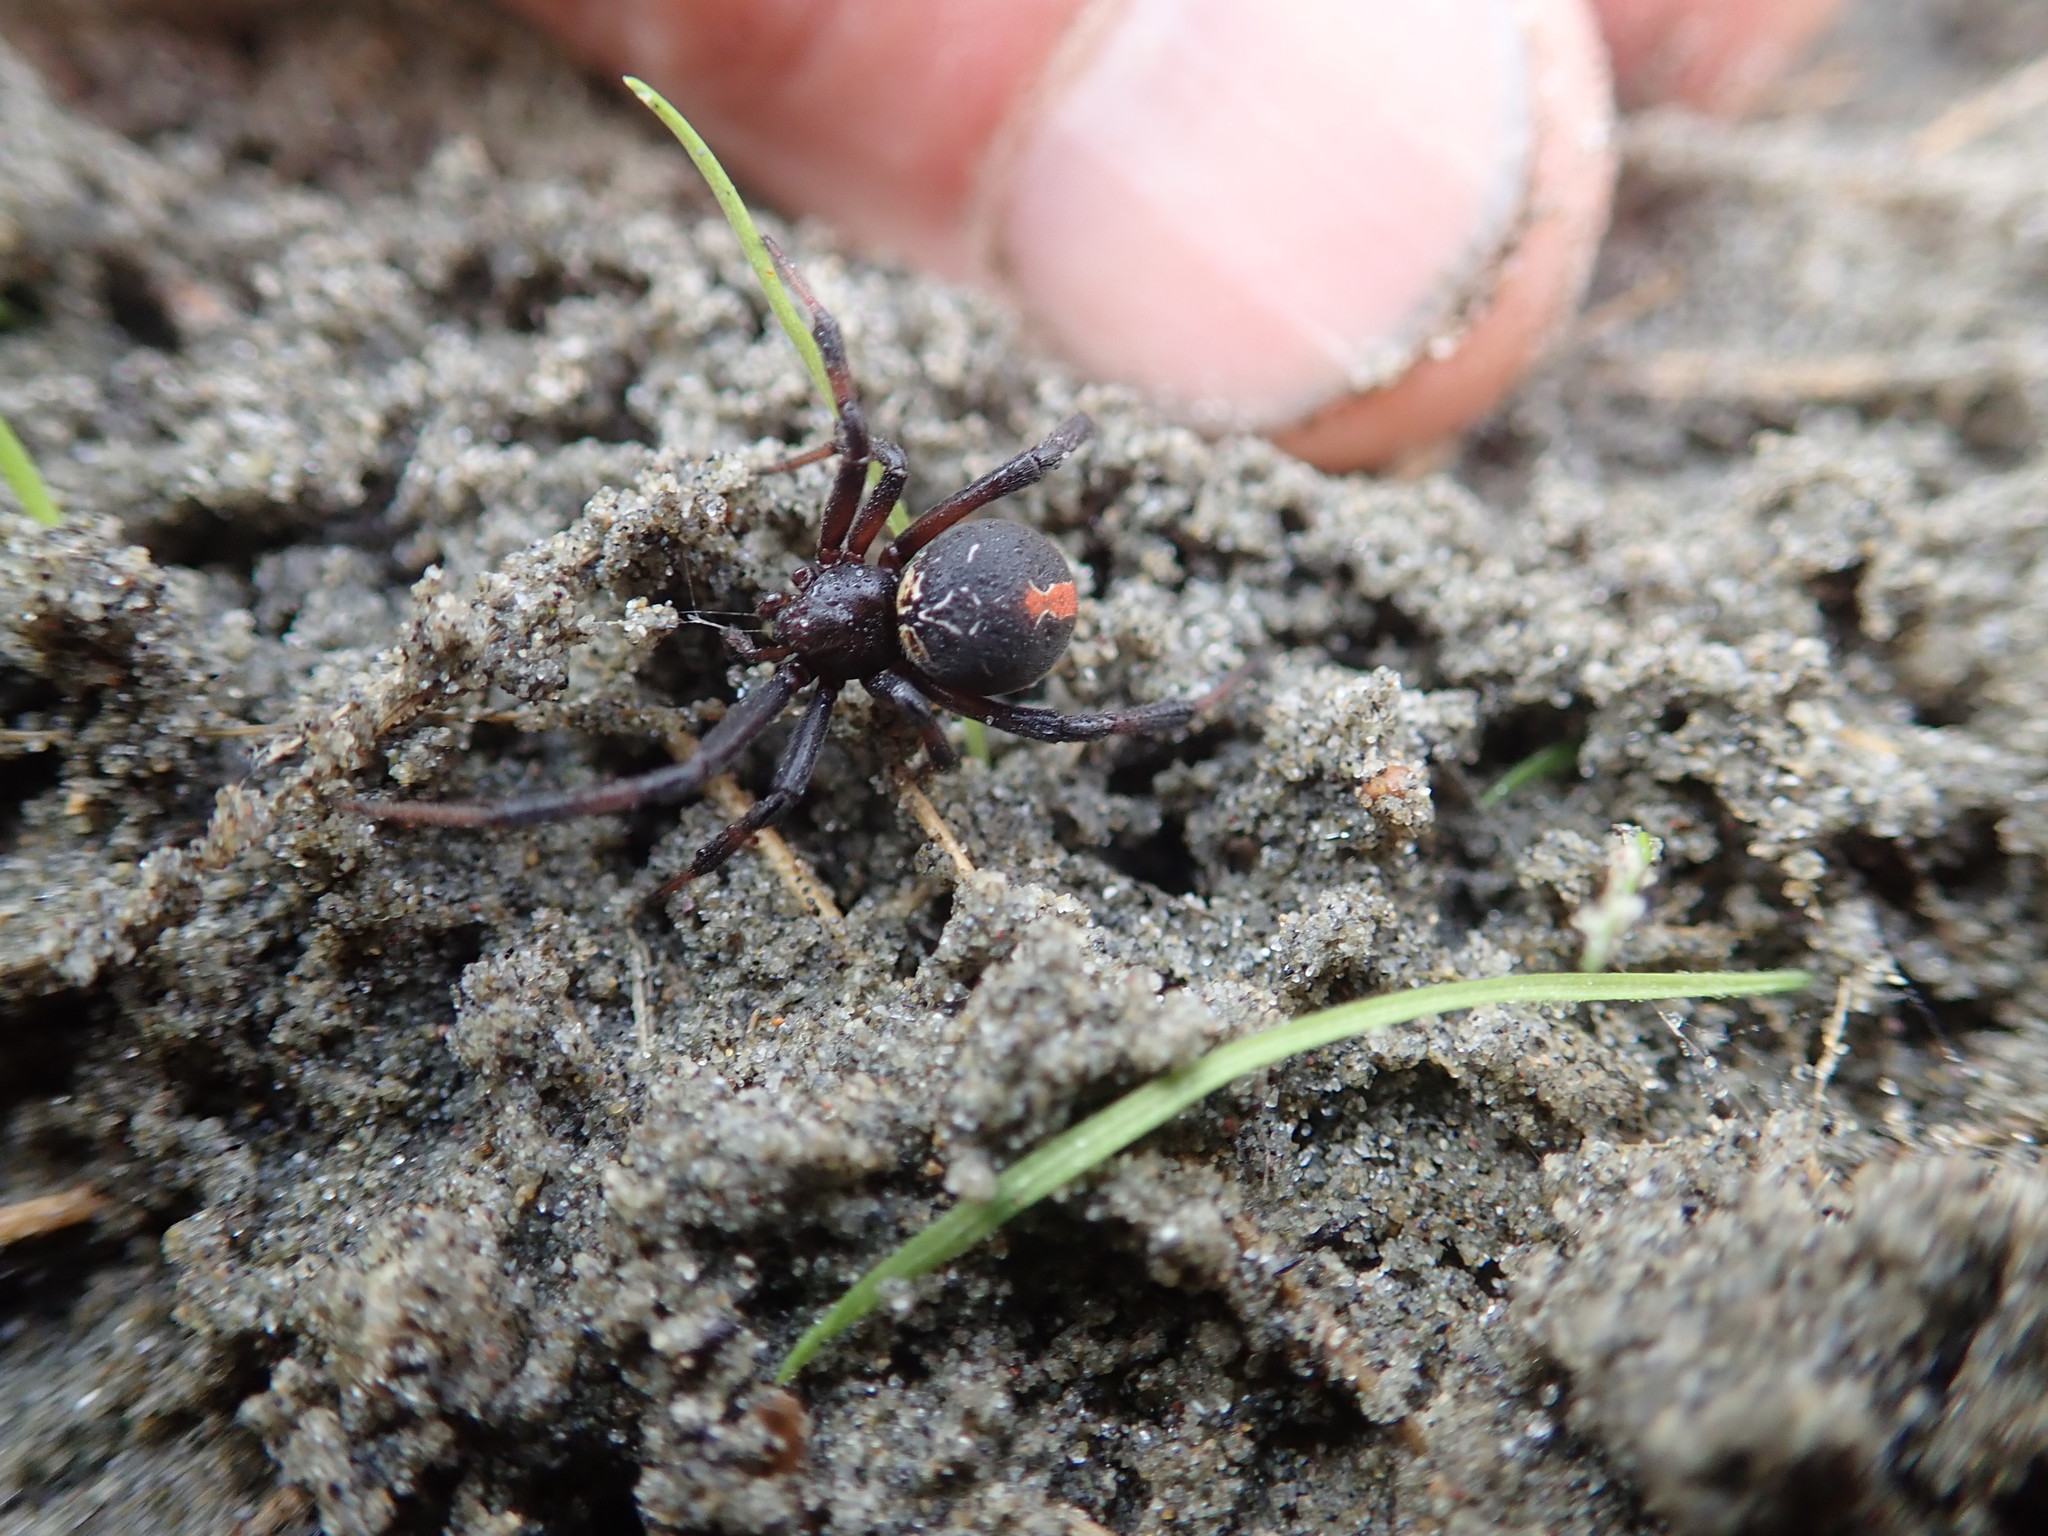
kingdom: Animalia
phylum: Arthropoda
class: Arachnida
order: Araneae
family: Theridiidae
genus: Latrodectus
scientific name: Latrodectus katipo
